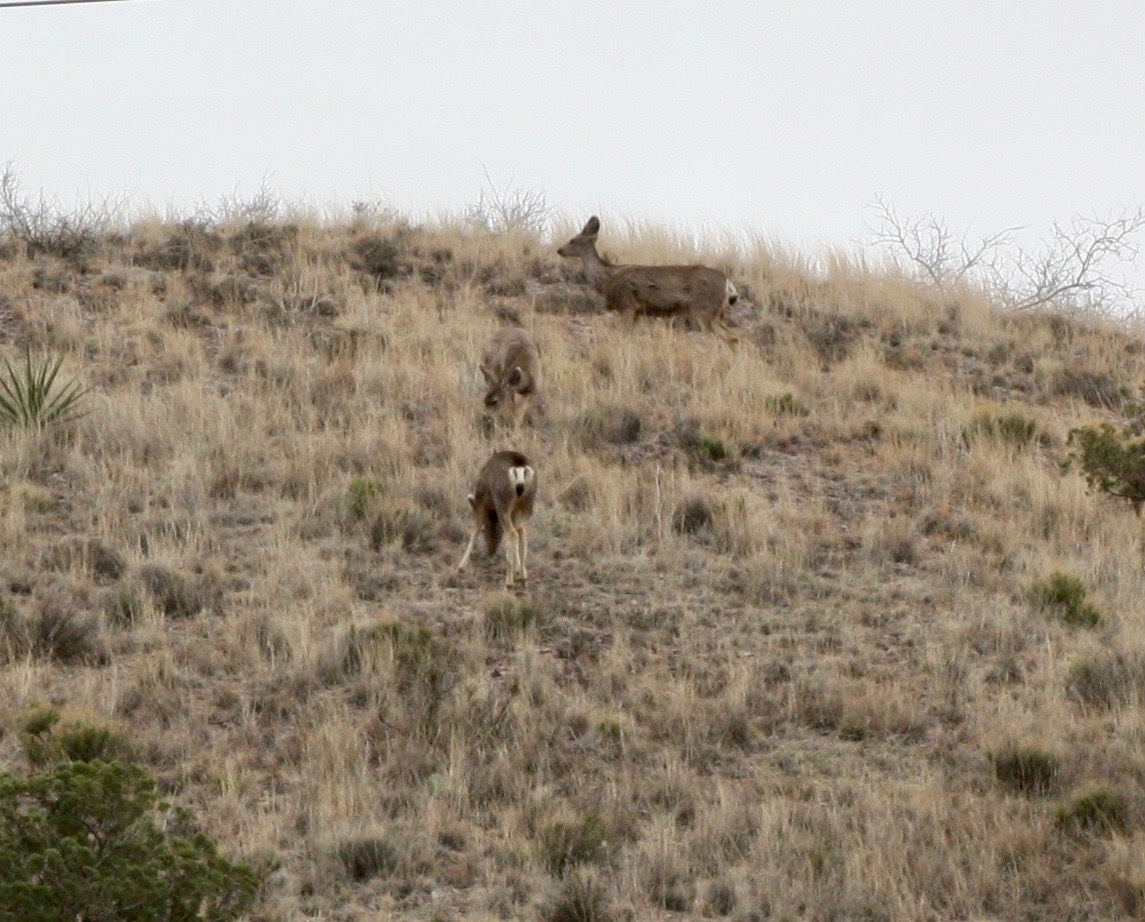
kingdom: Animalia
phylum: Chordata
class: Mammalia
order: Artiodactyla
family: Cervidae
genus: Odocoileus
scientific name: Odocoileus hemionus
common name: Mule deer
